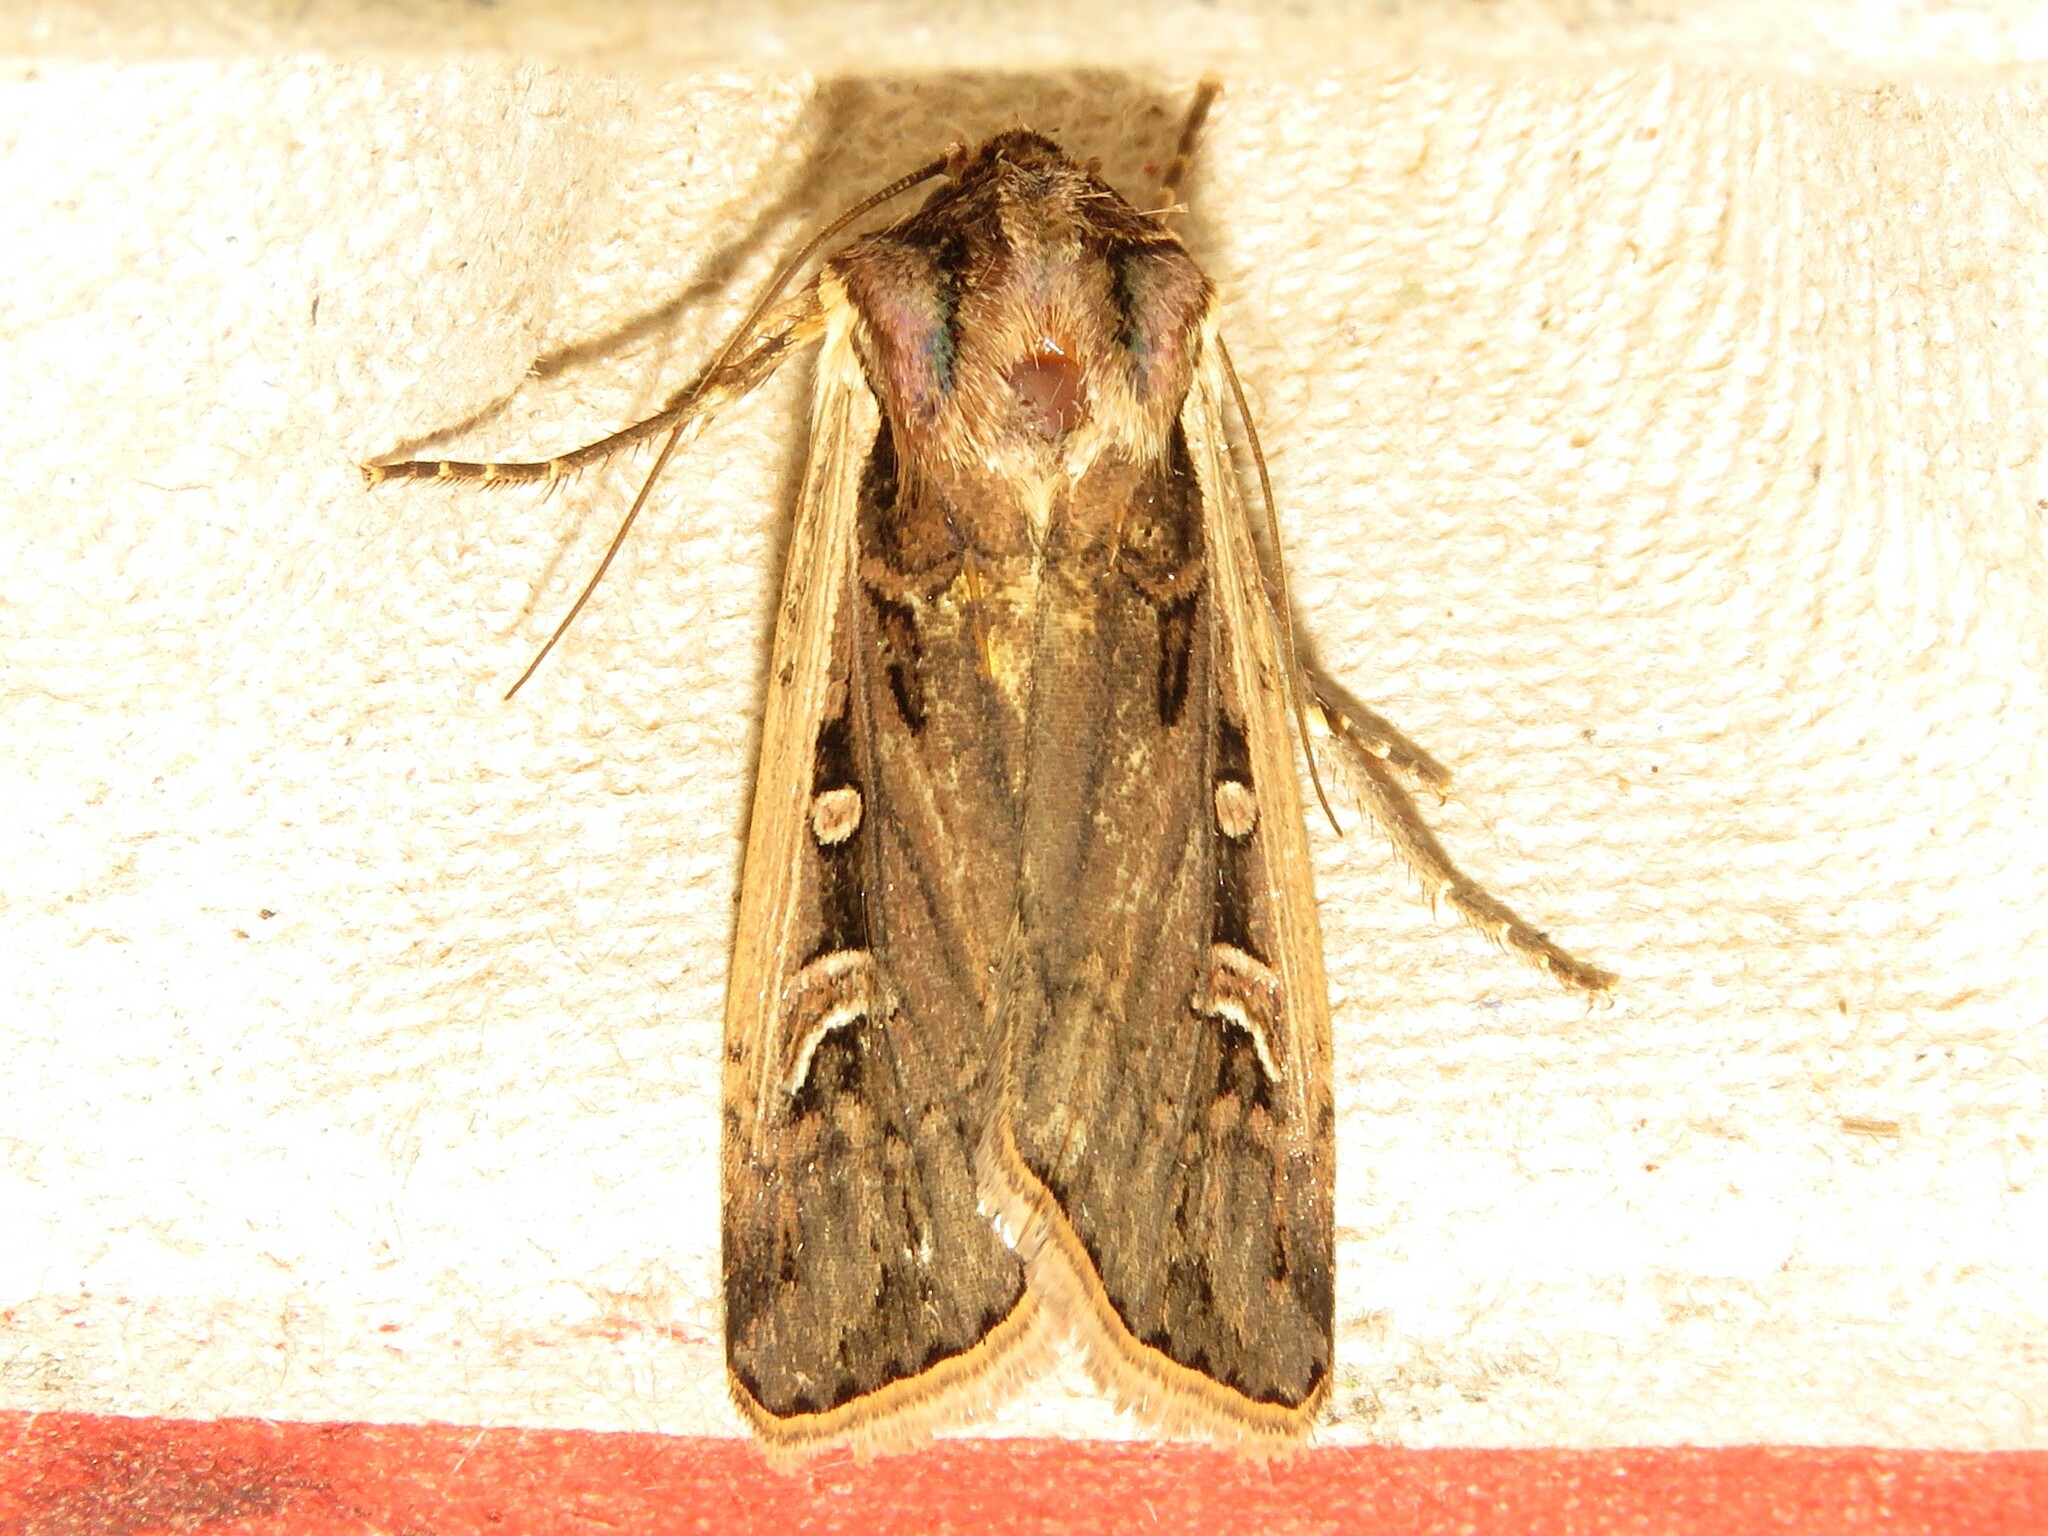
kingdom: Animalia
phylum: Arthropoda
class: Insecta
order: Lepidoptera
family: Noctuidae
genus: Striacosta
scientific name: Striacosta albicosta
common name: Western bean cutworm moth
